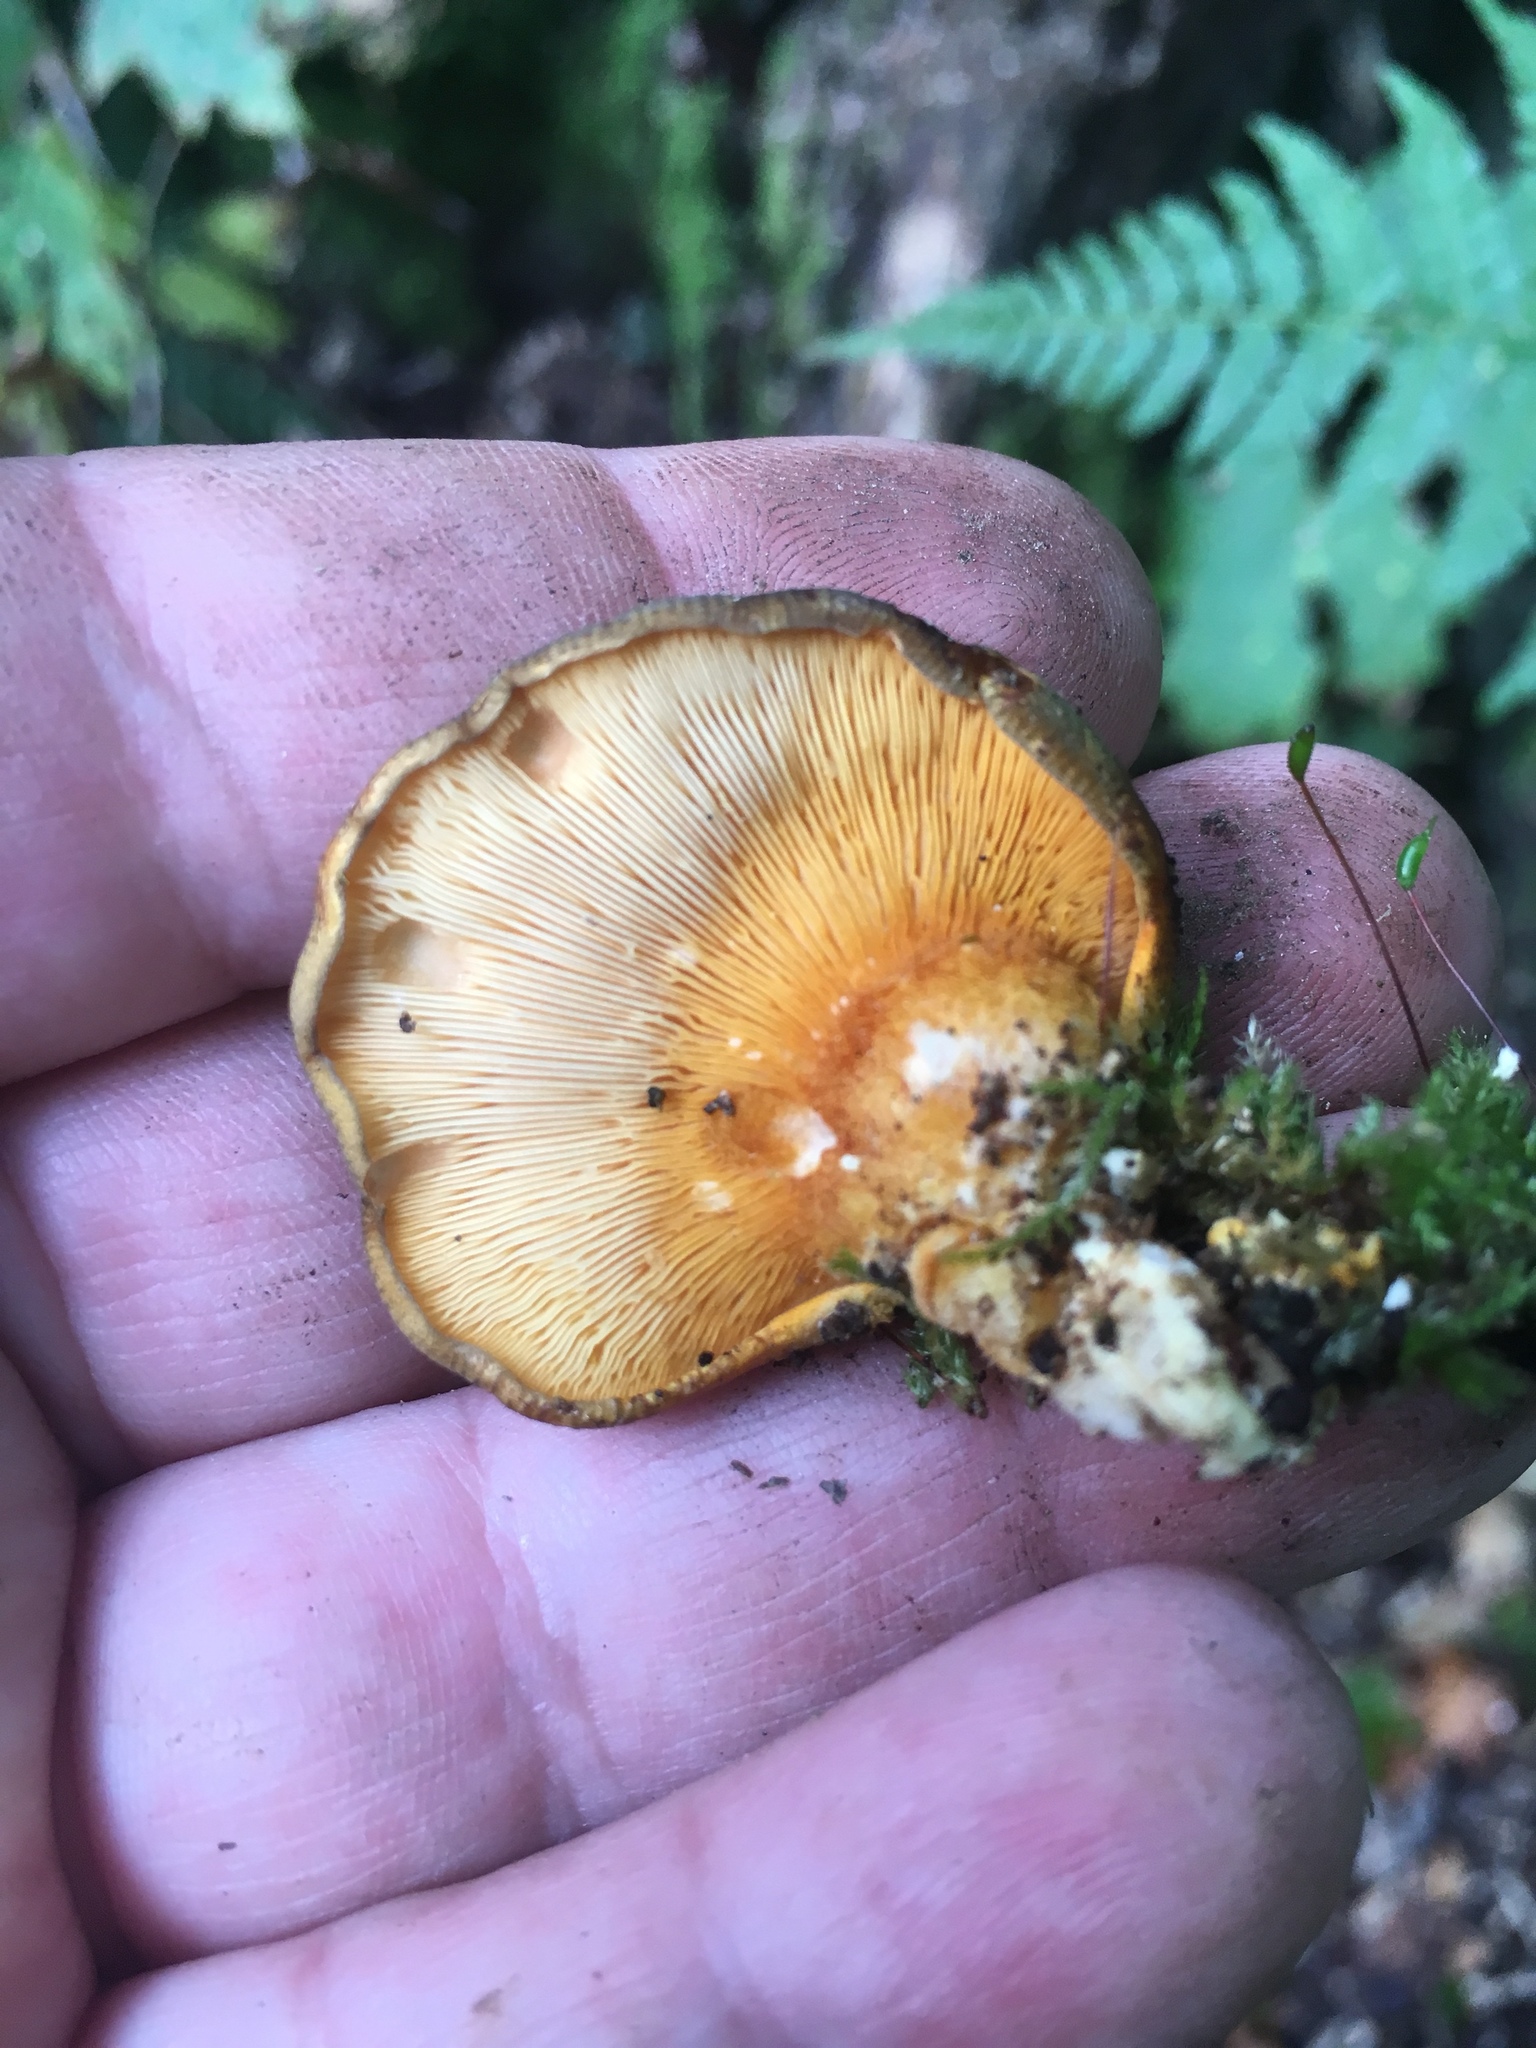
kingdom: Fungi
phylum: Basidiomycota
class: Agaricomycetes
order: Agaricales
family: Sarcomyxaceae
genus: Sarcomyxa
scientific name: Sarcomyxa serotina
